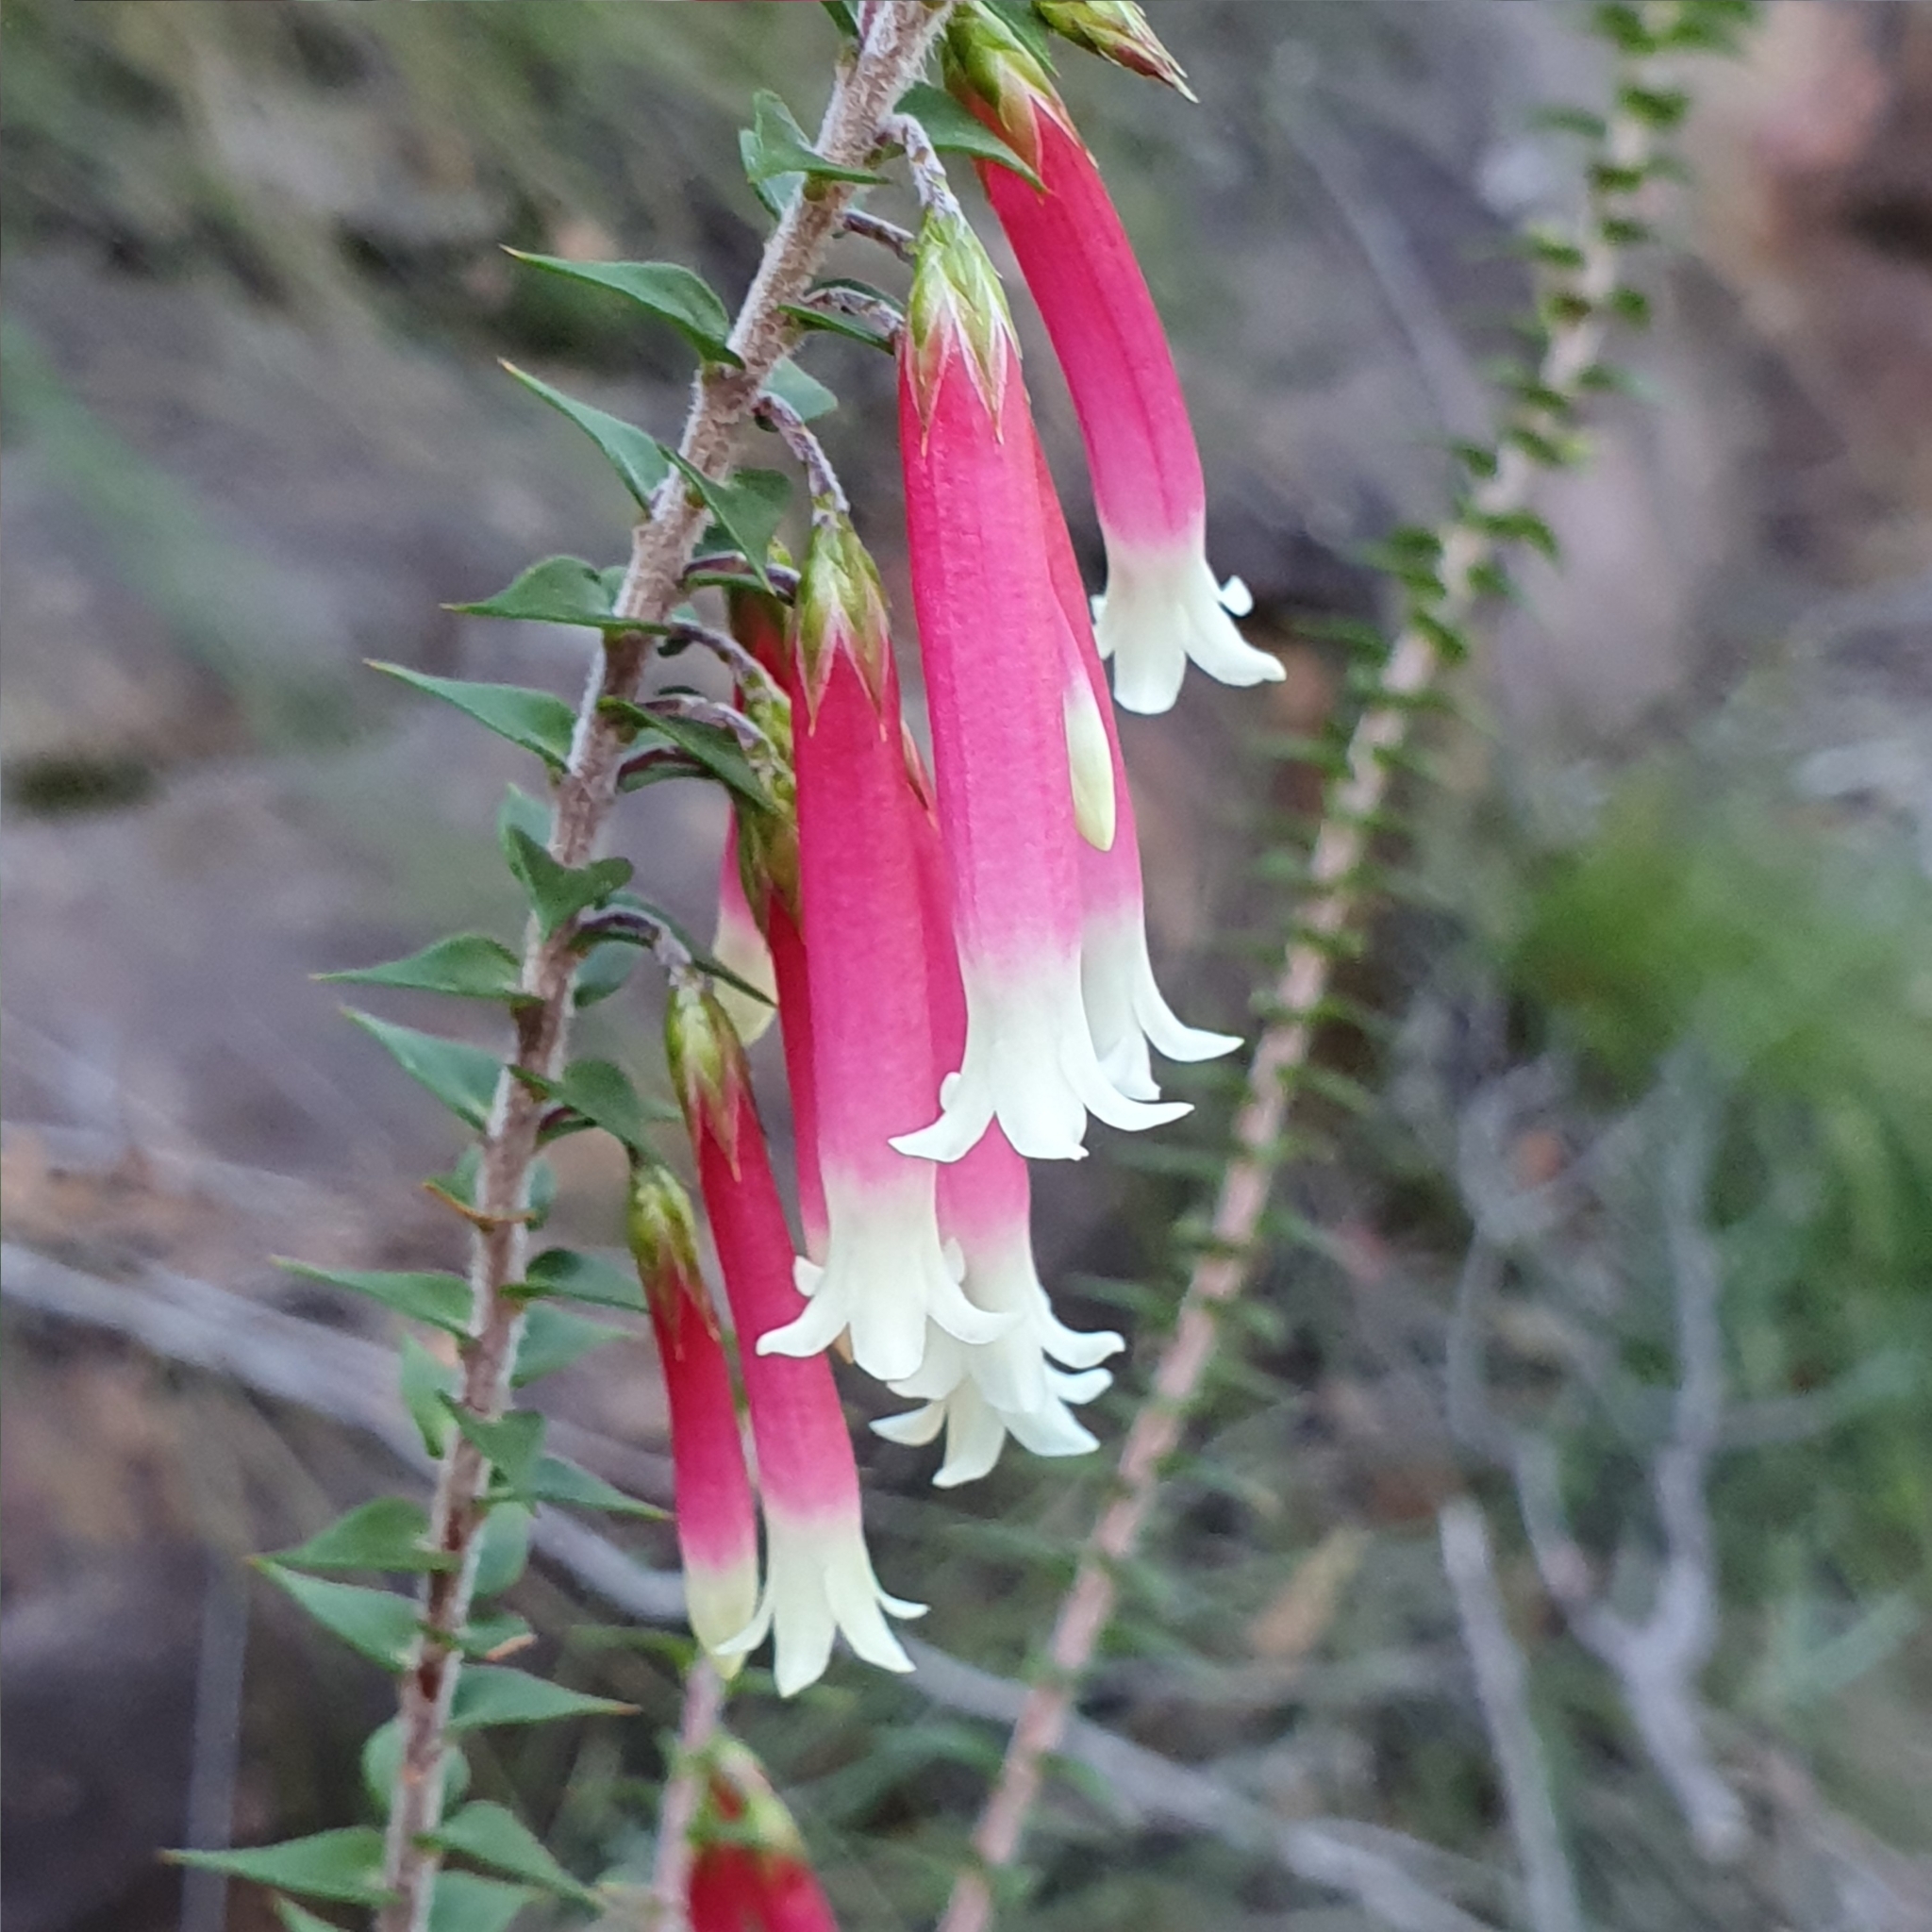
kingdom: Plantae
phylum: Tracheophyta
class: Magnoliopsida
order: Ericales
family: Ericaceae
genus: Epacris
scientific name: Epacris longiflora
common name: Fuchsia-heath
